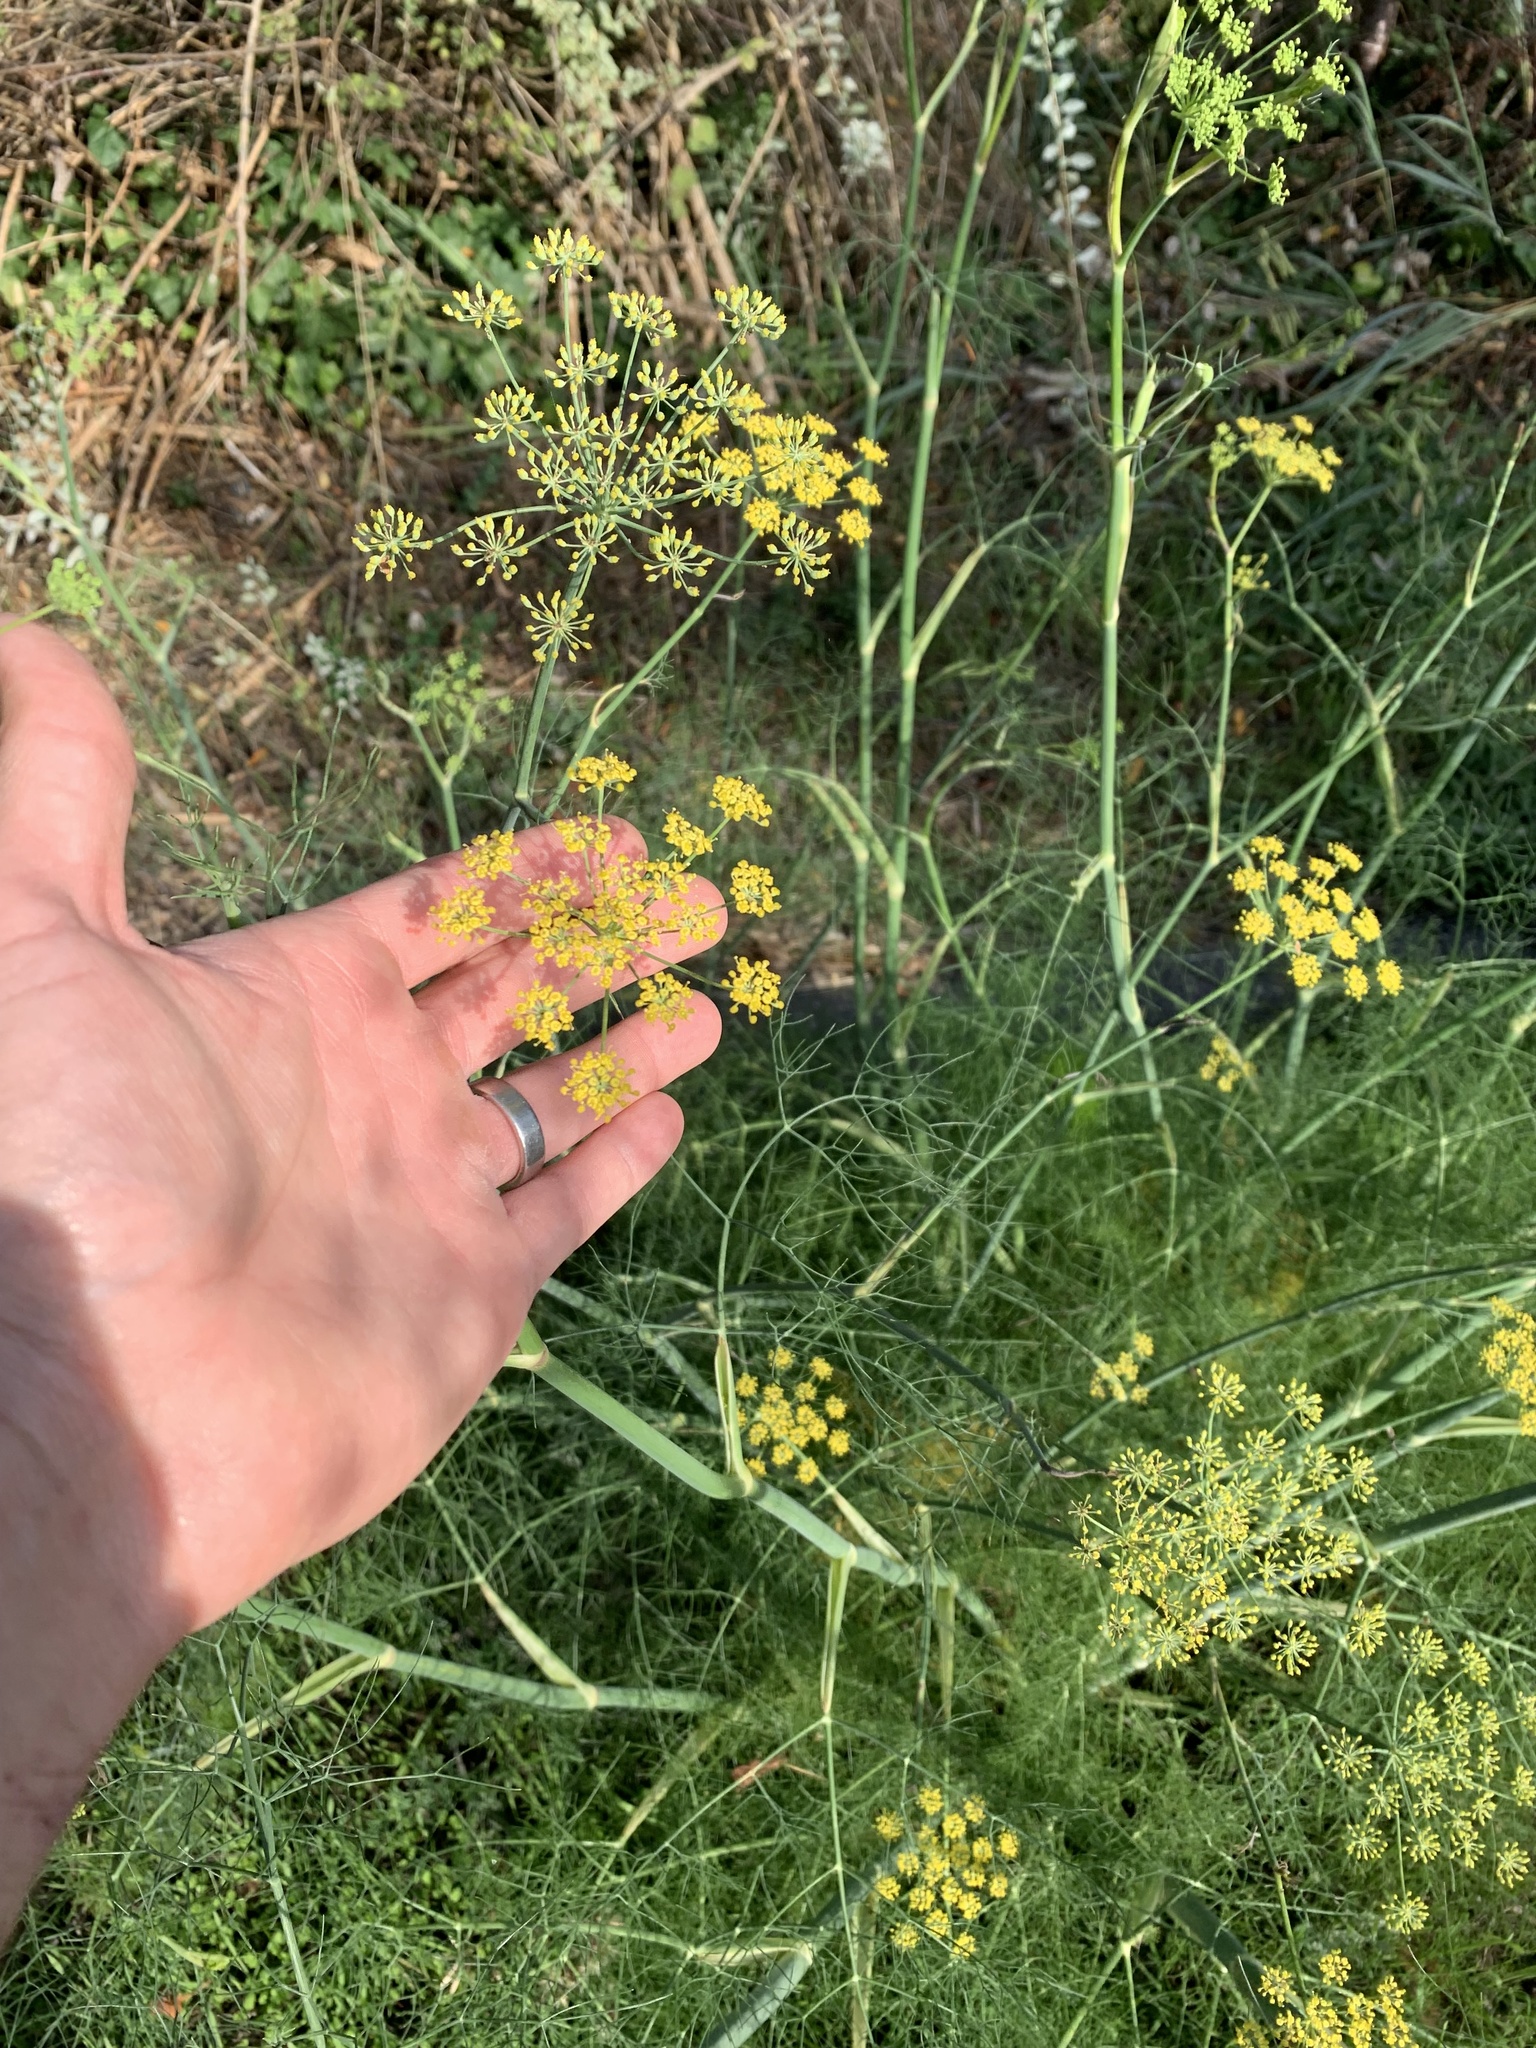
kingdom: Plantae
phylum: Tracheophyta
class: Magnoliopsida
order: Apiales
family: Apiaceae
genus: Foeniculum
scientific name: Foeniculum vulgare
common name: Fennel
